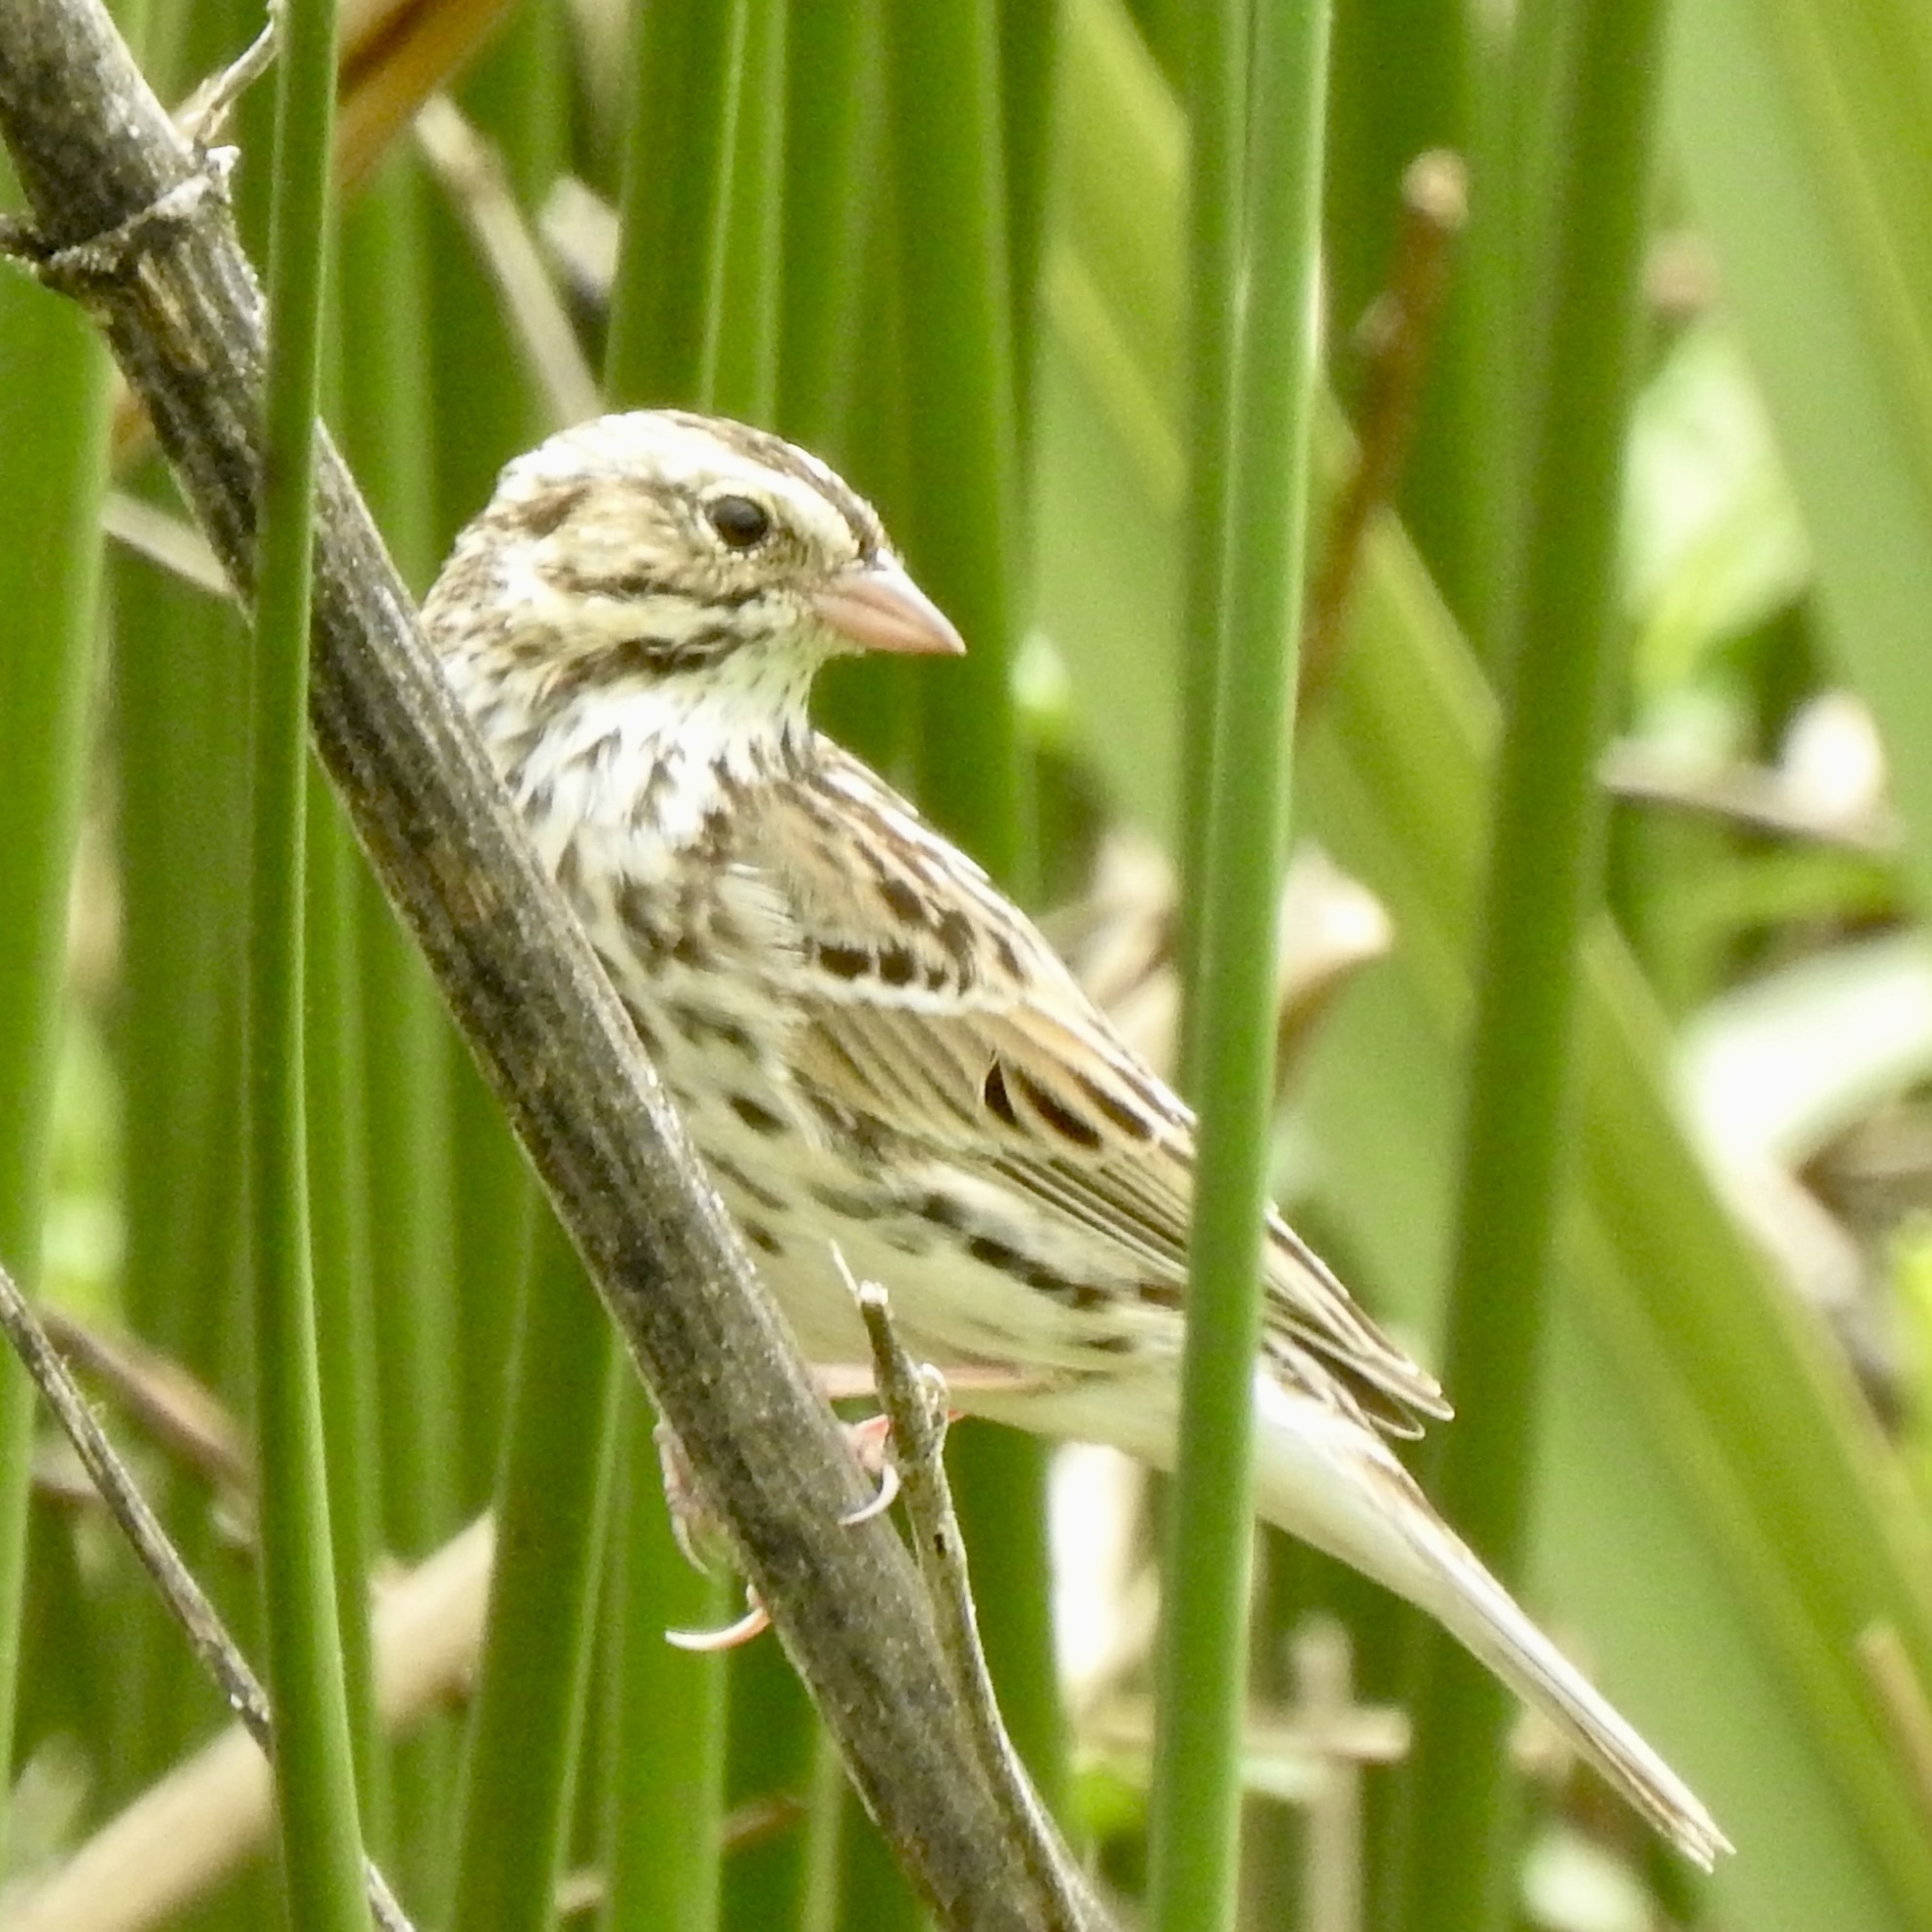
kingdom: Animalia
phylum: Chordata
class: Aves
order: Passeriformes
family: Passerellidae
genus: Passerculus
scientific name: Passerculus sandwichensis
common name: Savannah sparrow
